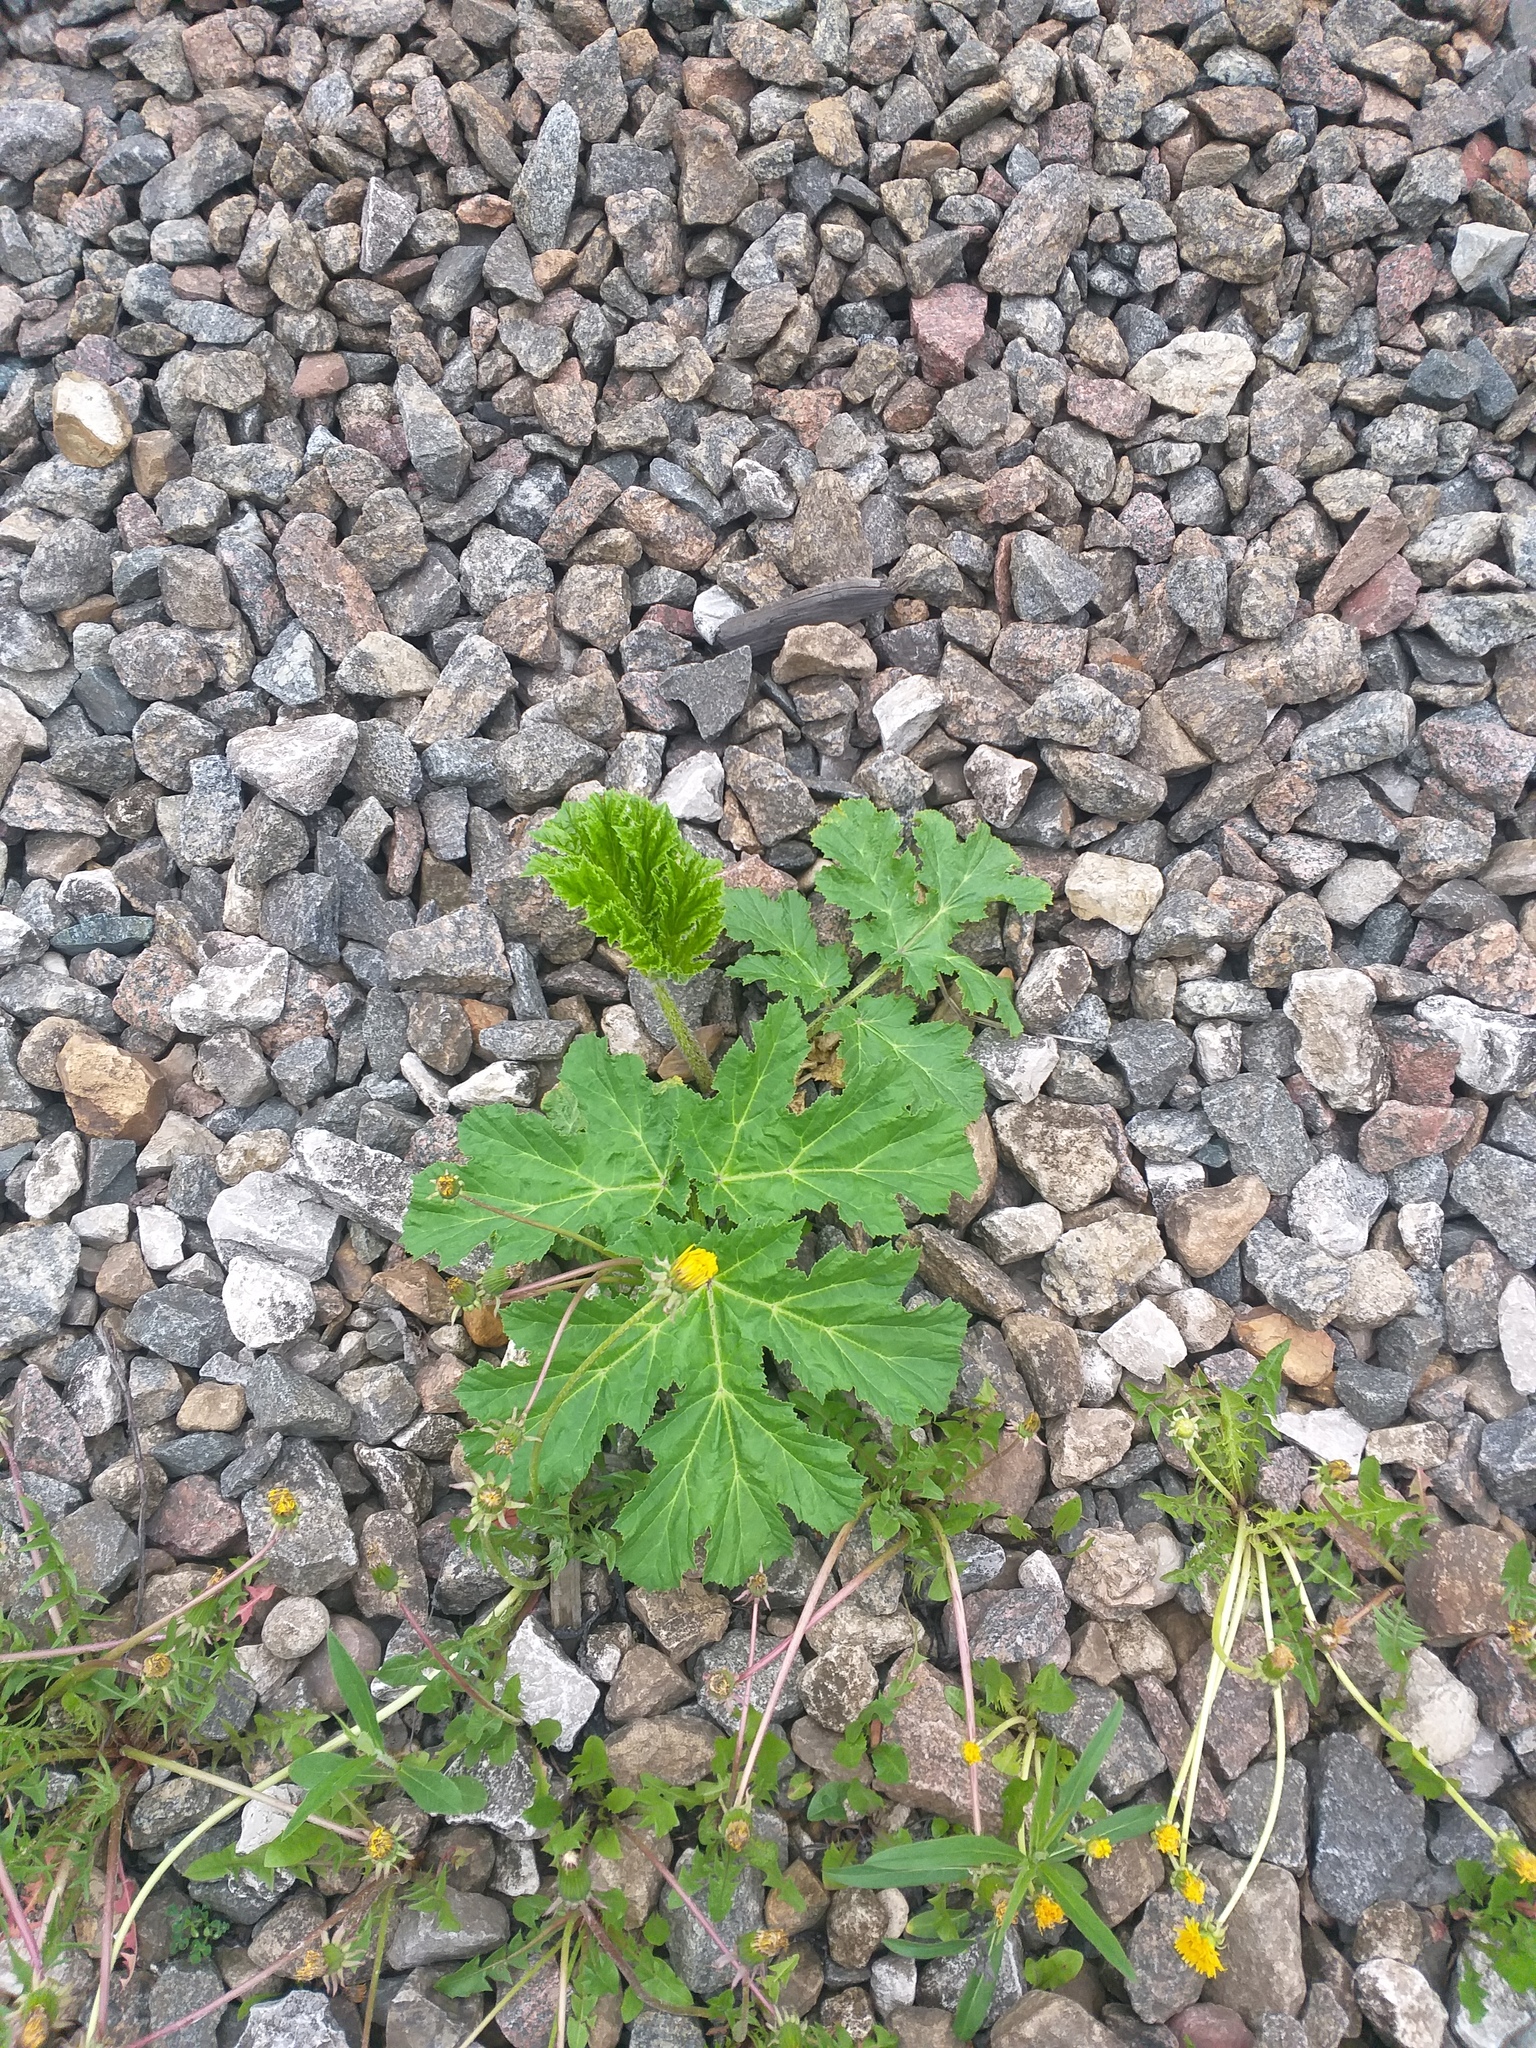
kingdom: Plantae
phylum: Tracheophyta
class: Magnoliopsida
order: Apiales
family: Apiaceae
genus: Heracleum
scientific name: Heracleum sosnowskyi
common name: Sosnowsky's hogweed
